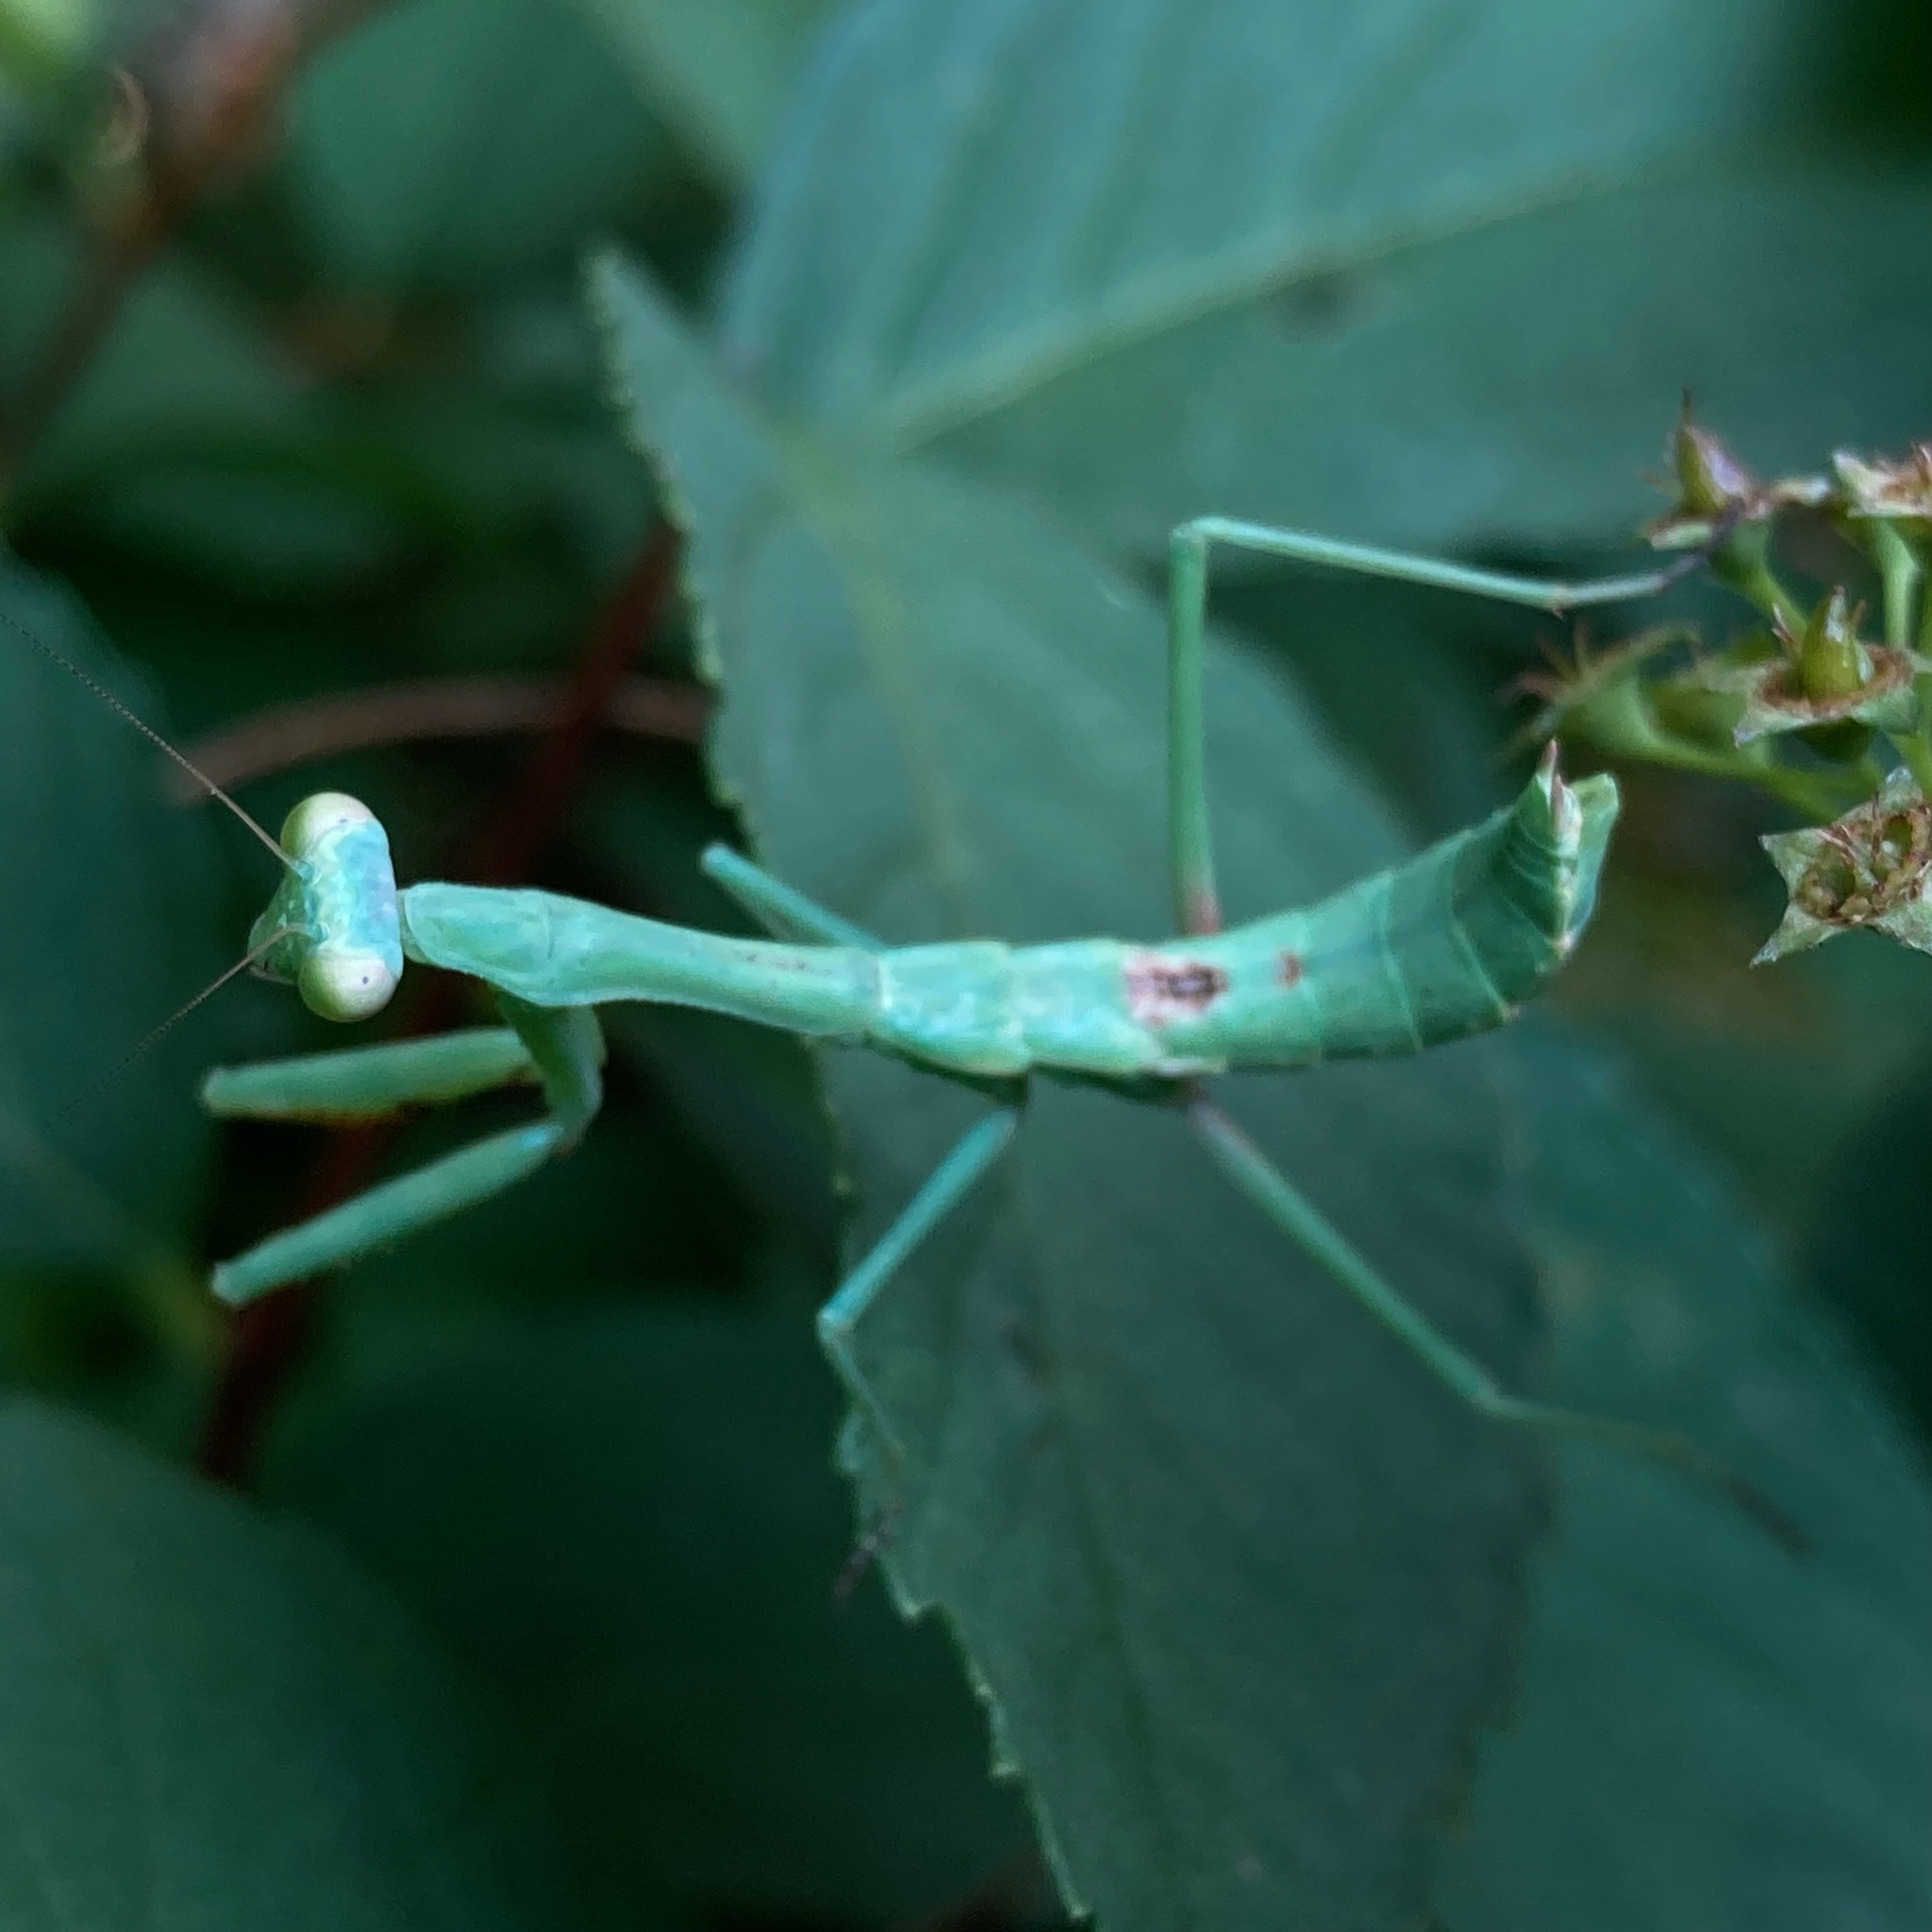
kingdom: Animalia
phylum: Arthropoda
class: Insecta
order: Mantodea
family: Mantidae
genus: Stagmomantis
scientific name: Stagmomantis carolina
